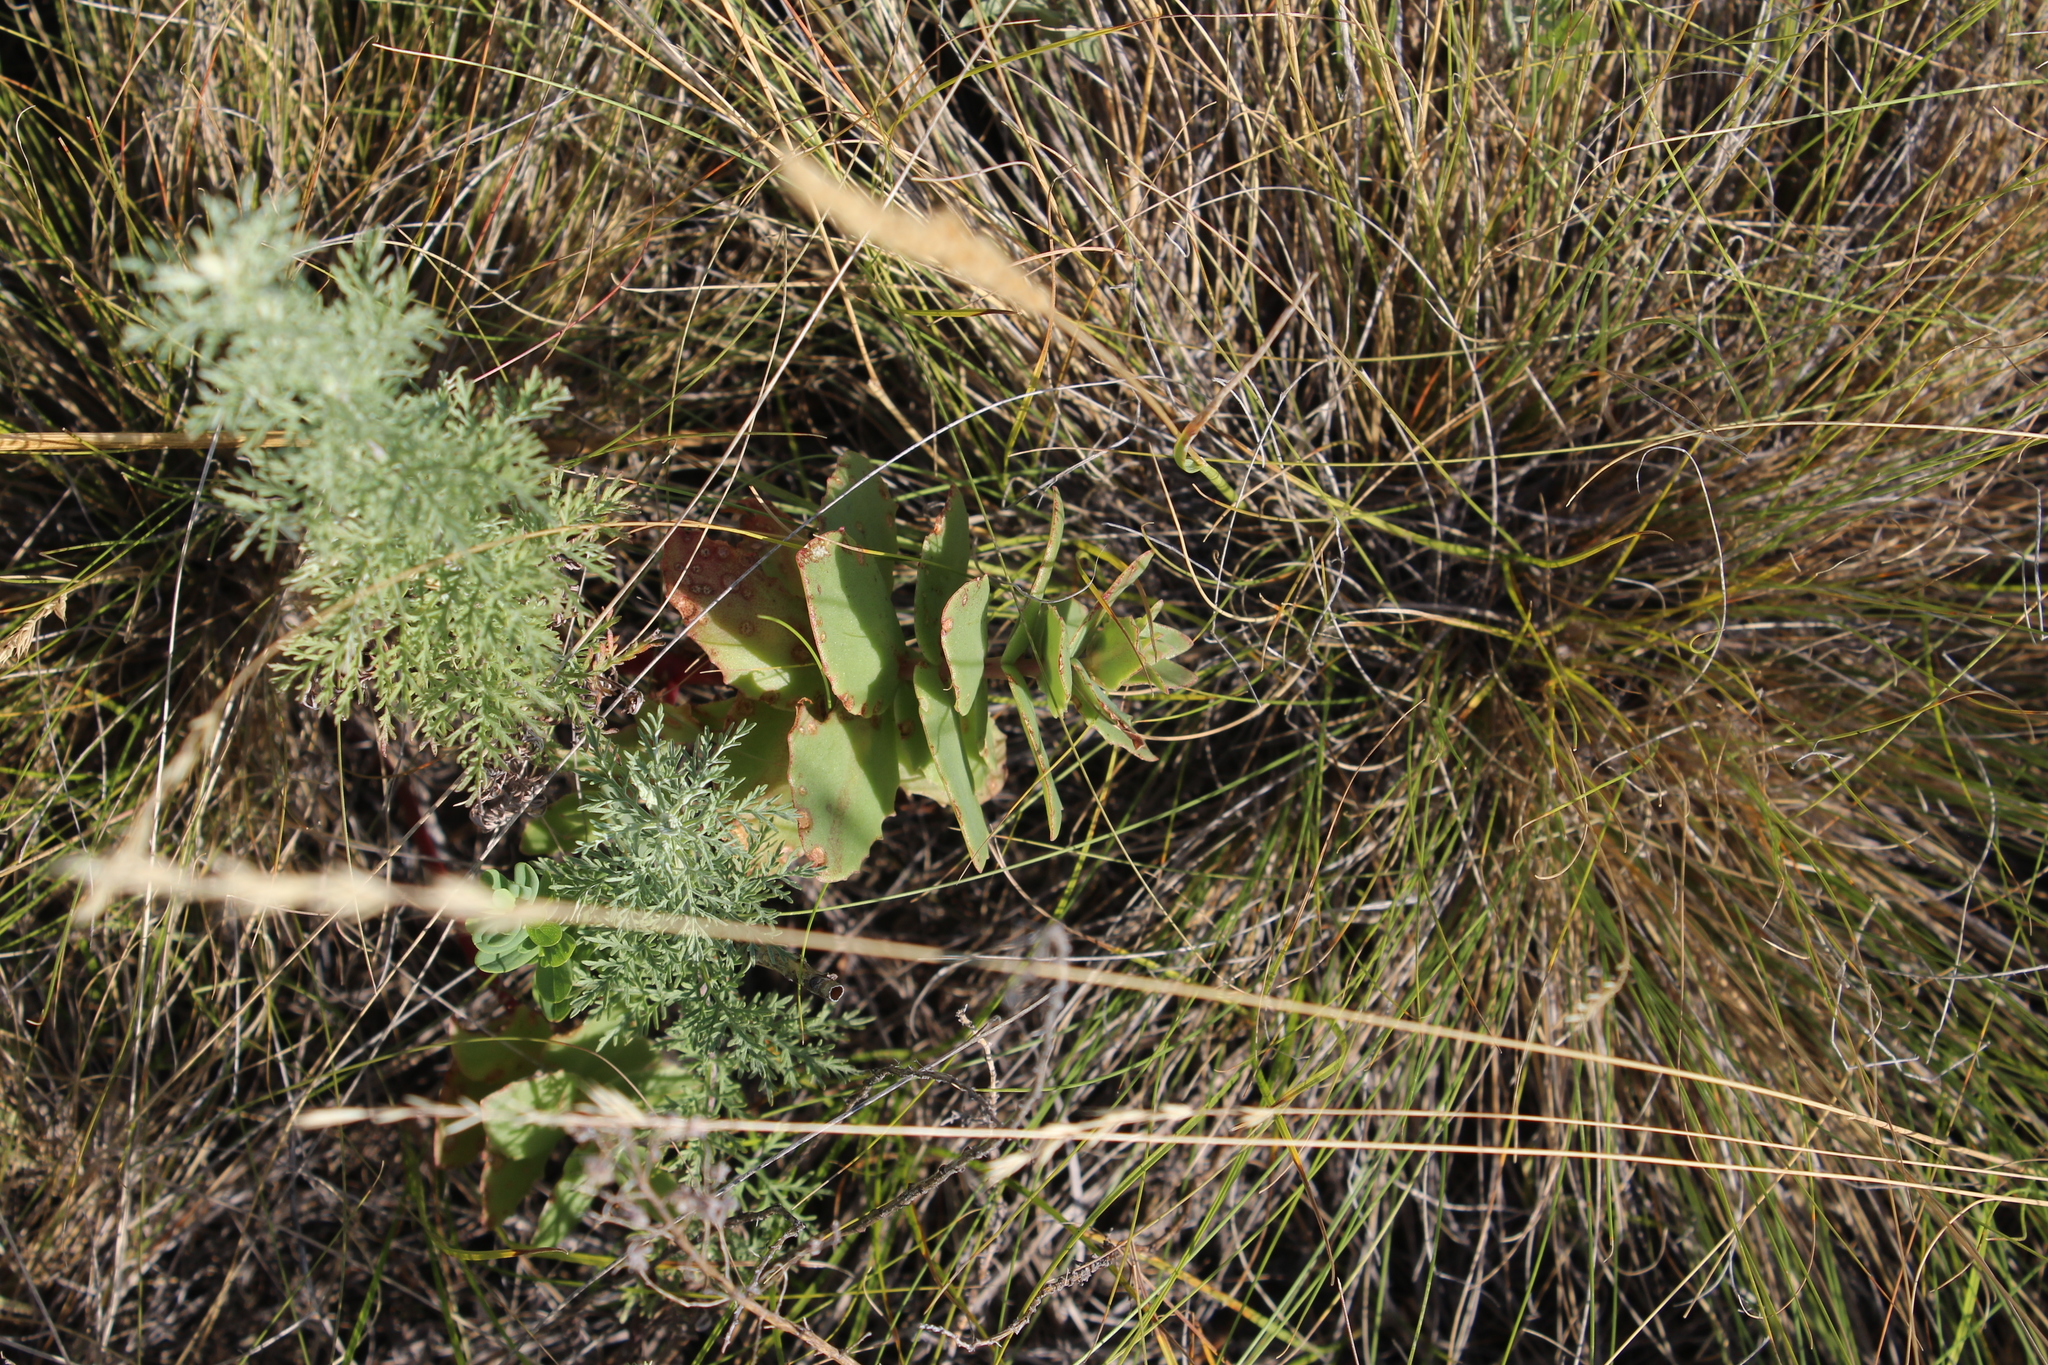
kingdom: Plantae
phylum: Tracheophyta
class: Magnoliopsida
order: Saxifragales
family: Crassulaceae
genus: Hylotelephium
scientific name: Hylotelephium maximum
